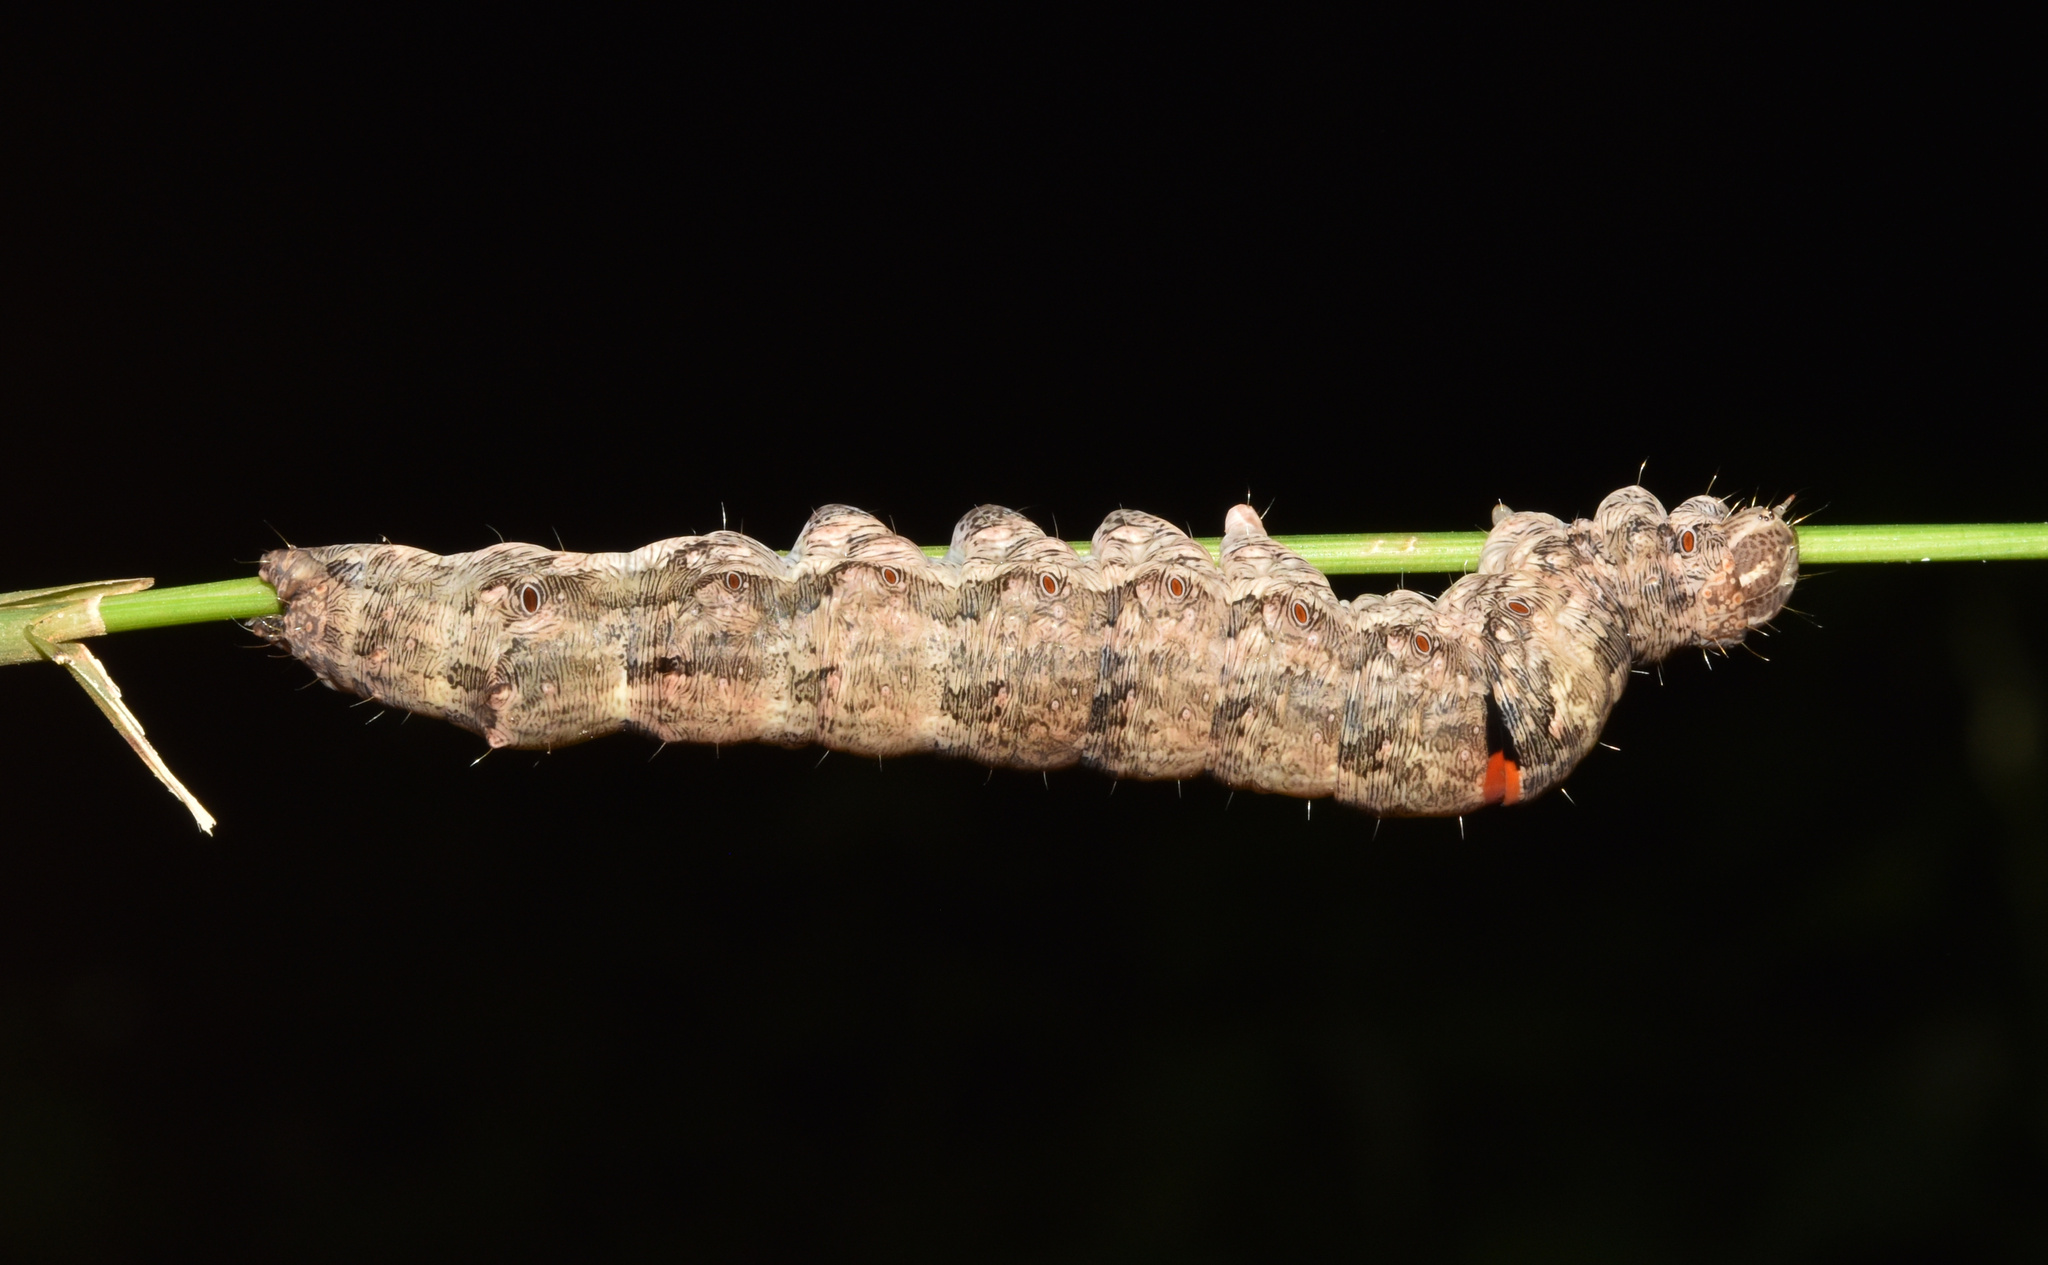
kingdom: Animalia
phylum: Arthropoda
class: Insecta
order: Lepidoptera
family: Erebidae
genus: Sphingomorpha
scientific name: Sphingomorpha chlorea
